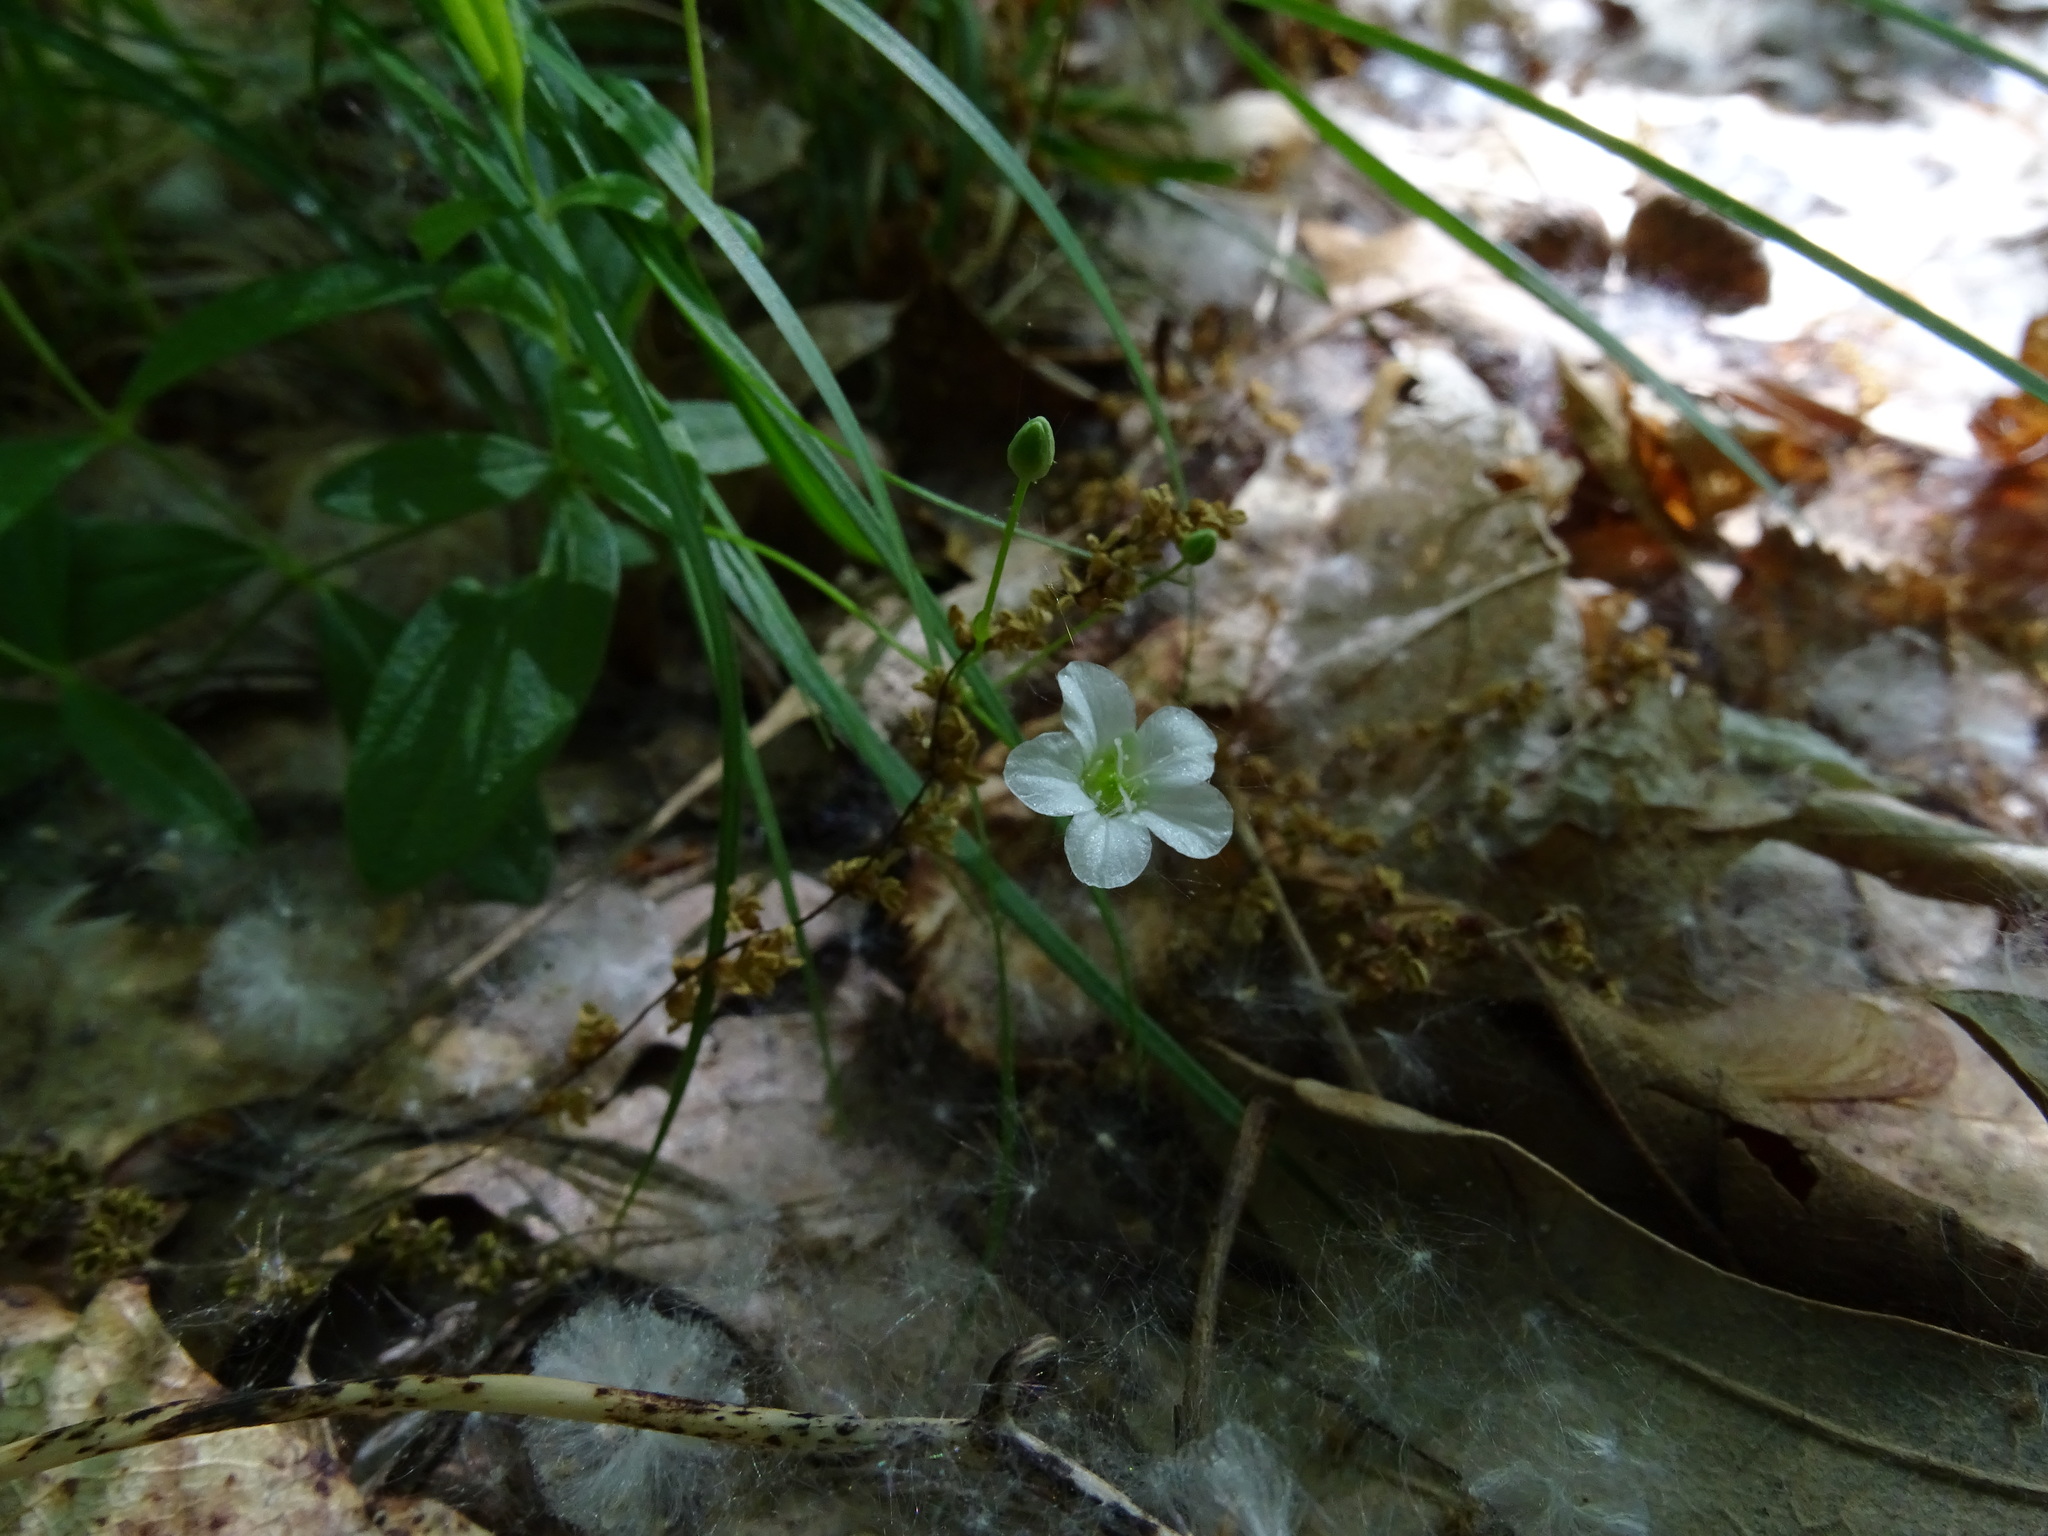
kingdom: Plantae
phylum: Tracheophyta
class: Magnoliopsida
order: Caryophyllales
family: Caryophyllaceae
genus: Moehringia
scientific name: Moehringia lateriflora
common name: Blunt-leaved sandwort
